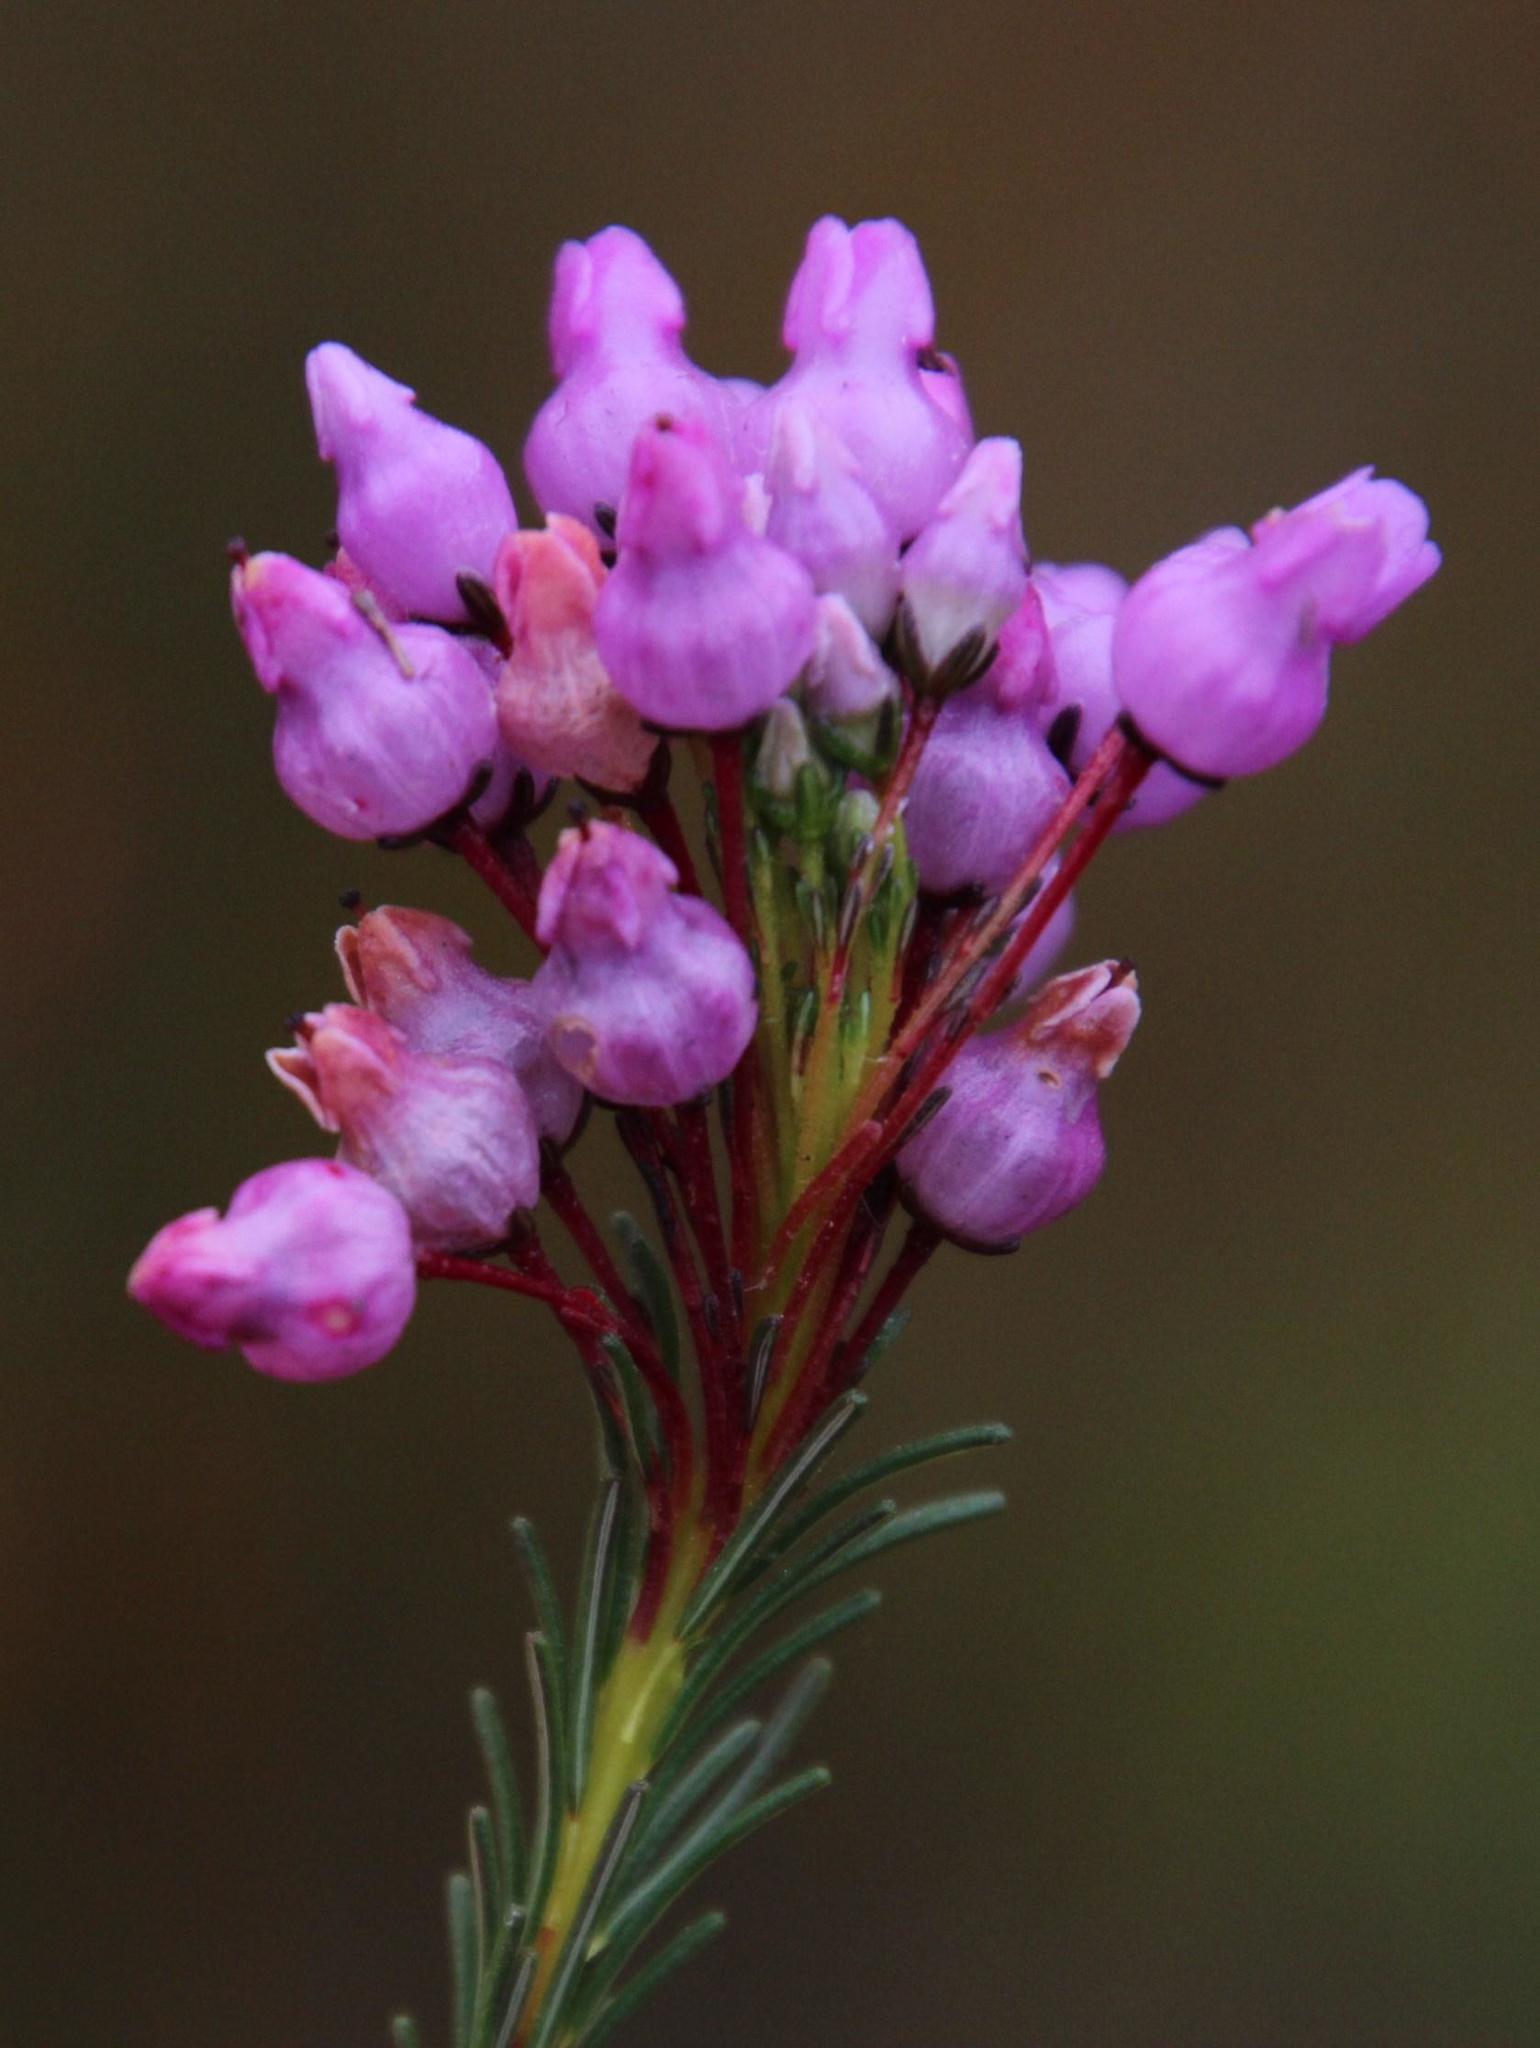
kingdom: Plantae
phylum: Tracheophyta
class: Magnoliopsida
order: Ericales
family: Ericaceae
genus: Erica
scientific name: Erica obliqua
